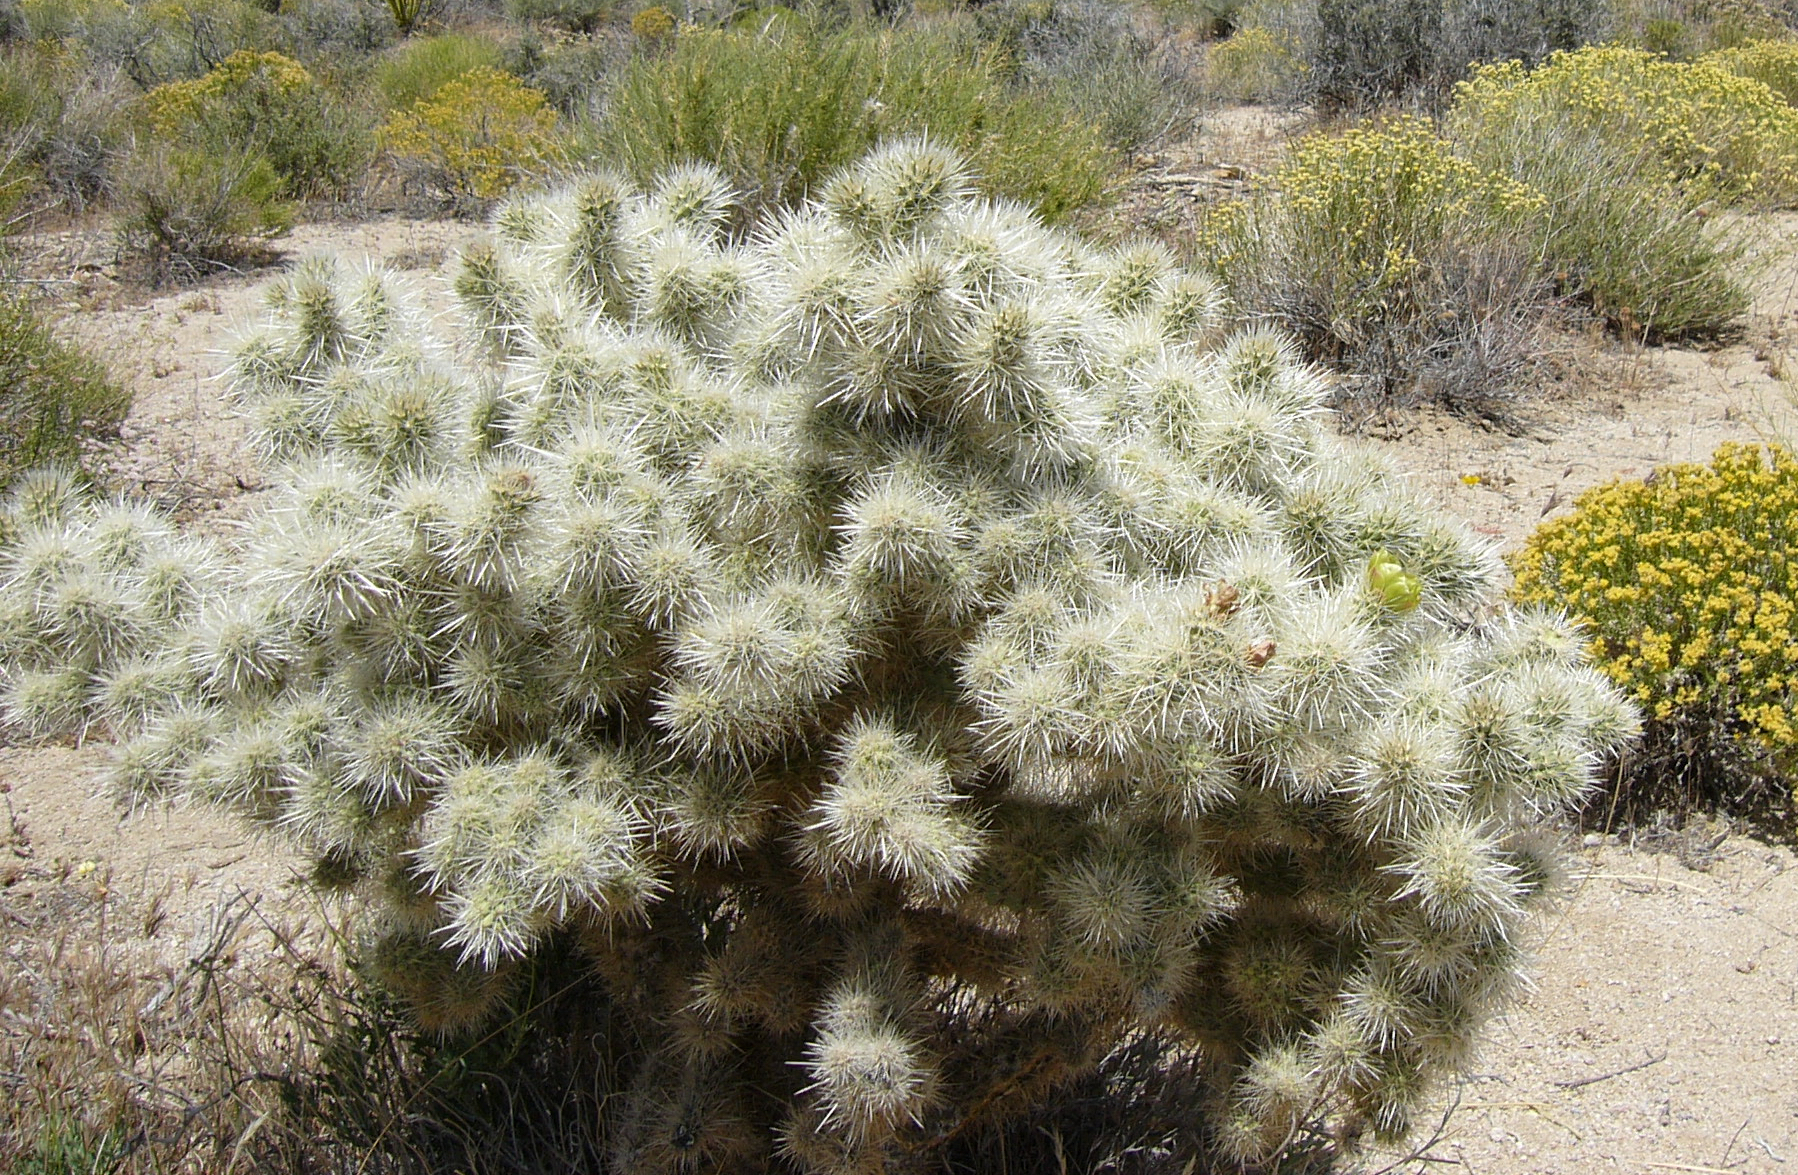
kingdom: Plantae
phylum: Tracheophyta
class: Magnoliopsida
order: Caryophyllales
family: Cactaceae
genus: Cylindropuntia
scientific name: Cylindropuntia echinocarpa
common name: Ground cholla
